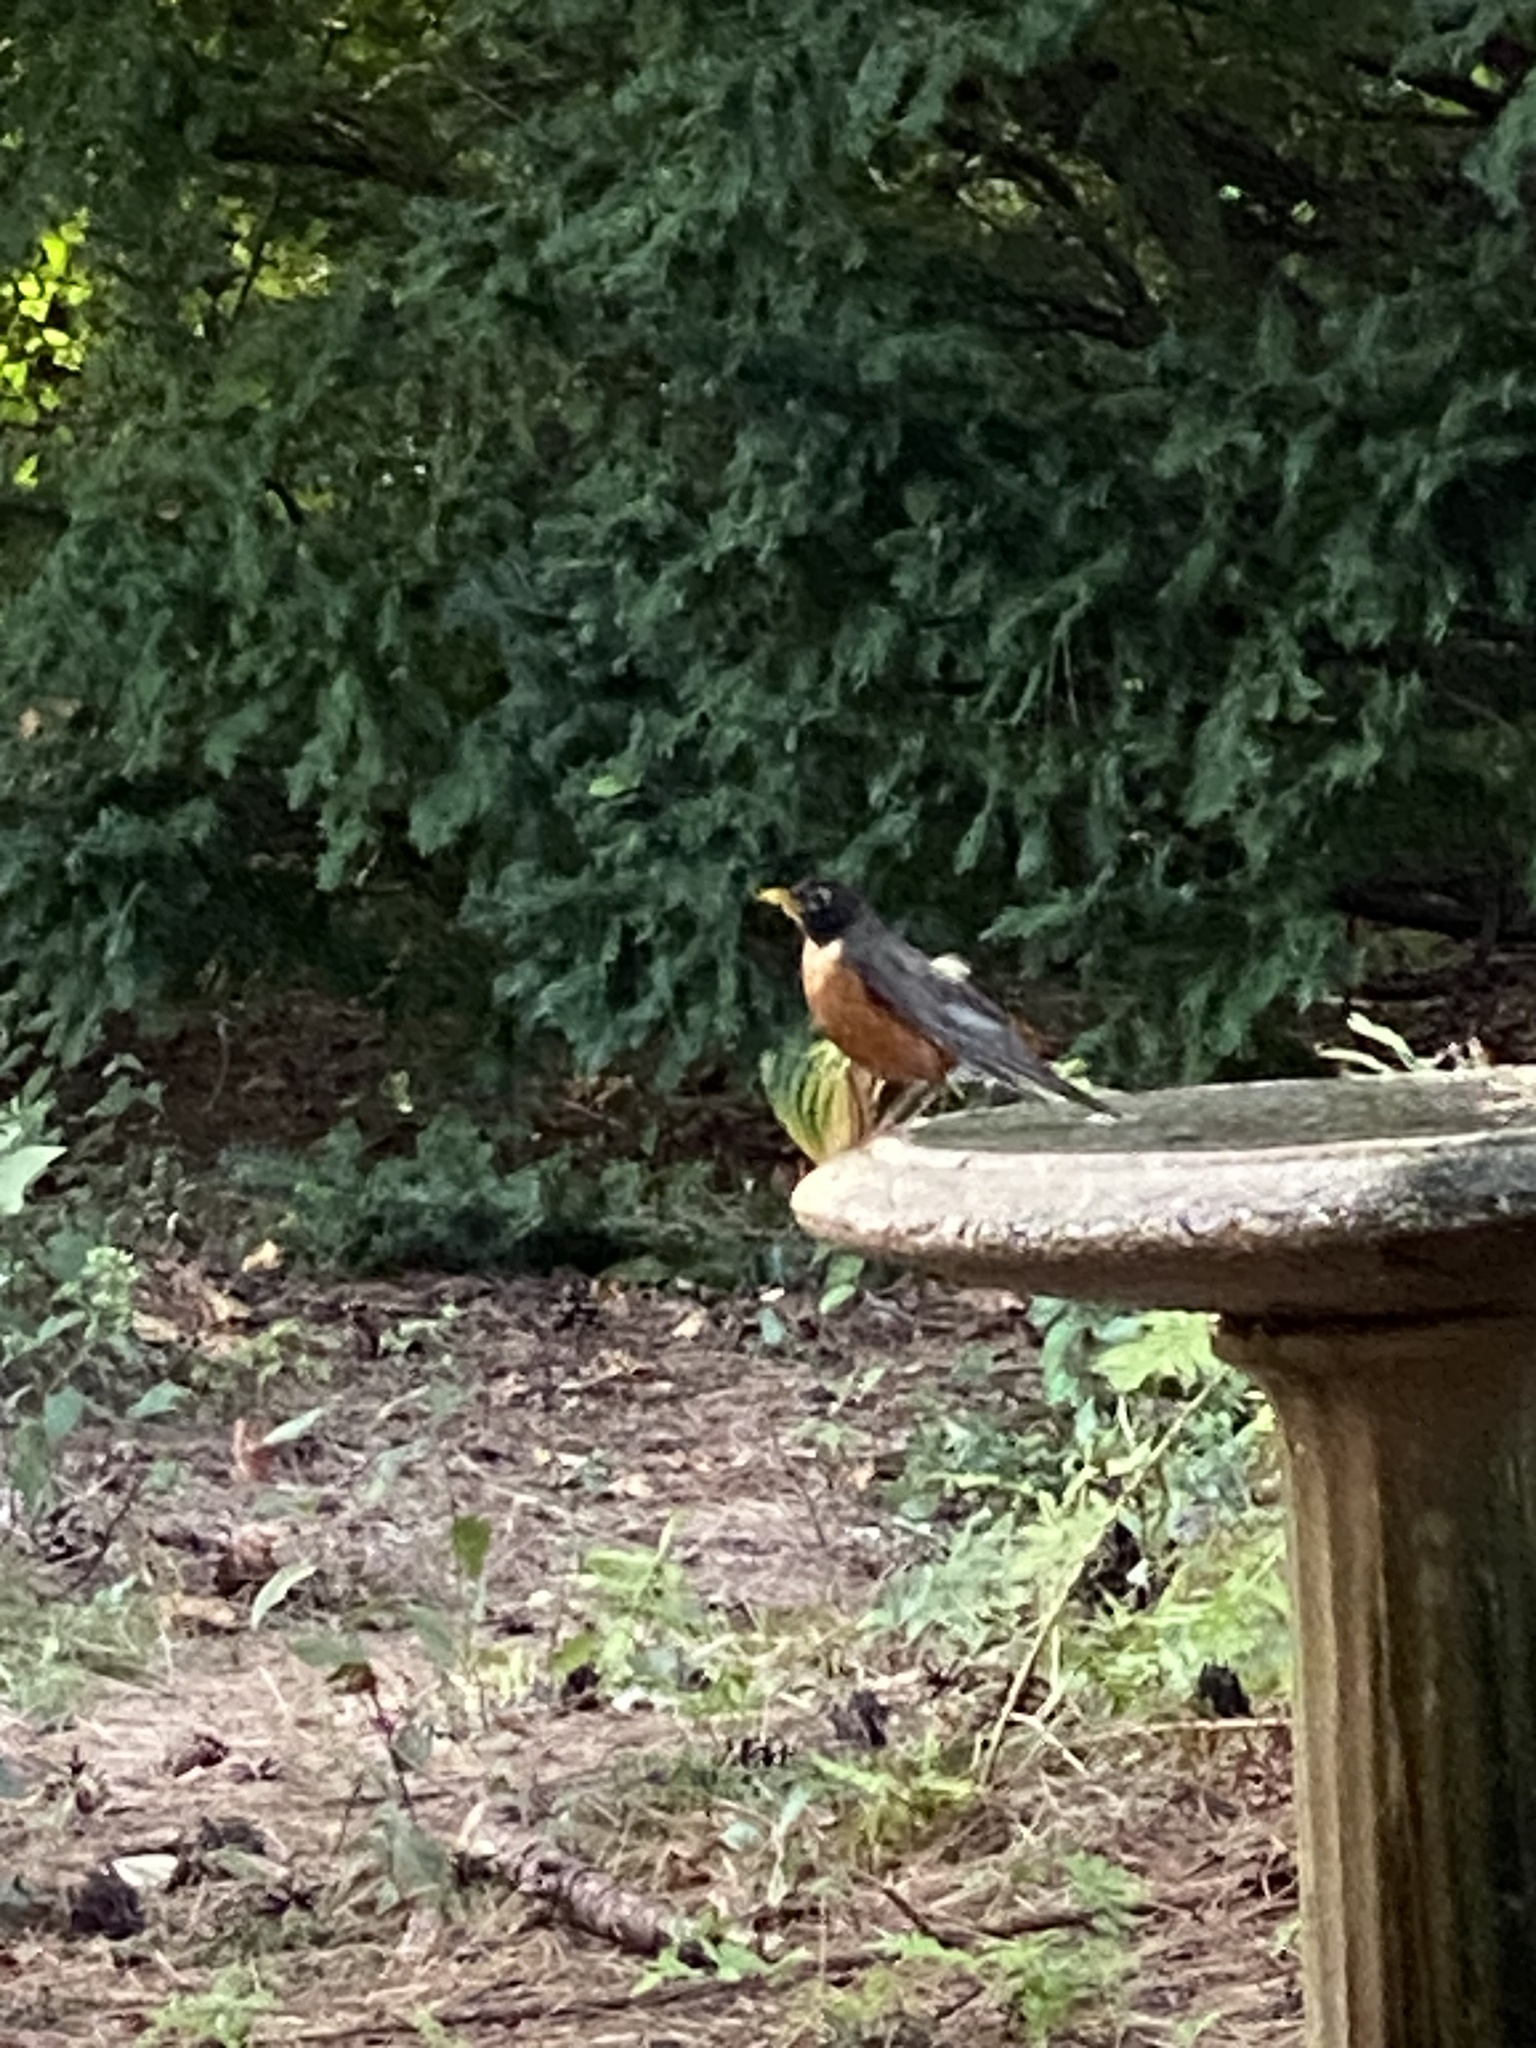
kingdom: Animalia
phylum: Chordata
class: Aves
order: Passeriformes
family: Turdidae
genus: Turdus
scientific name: Turdus migratorius
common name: American robin
